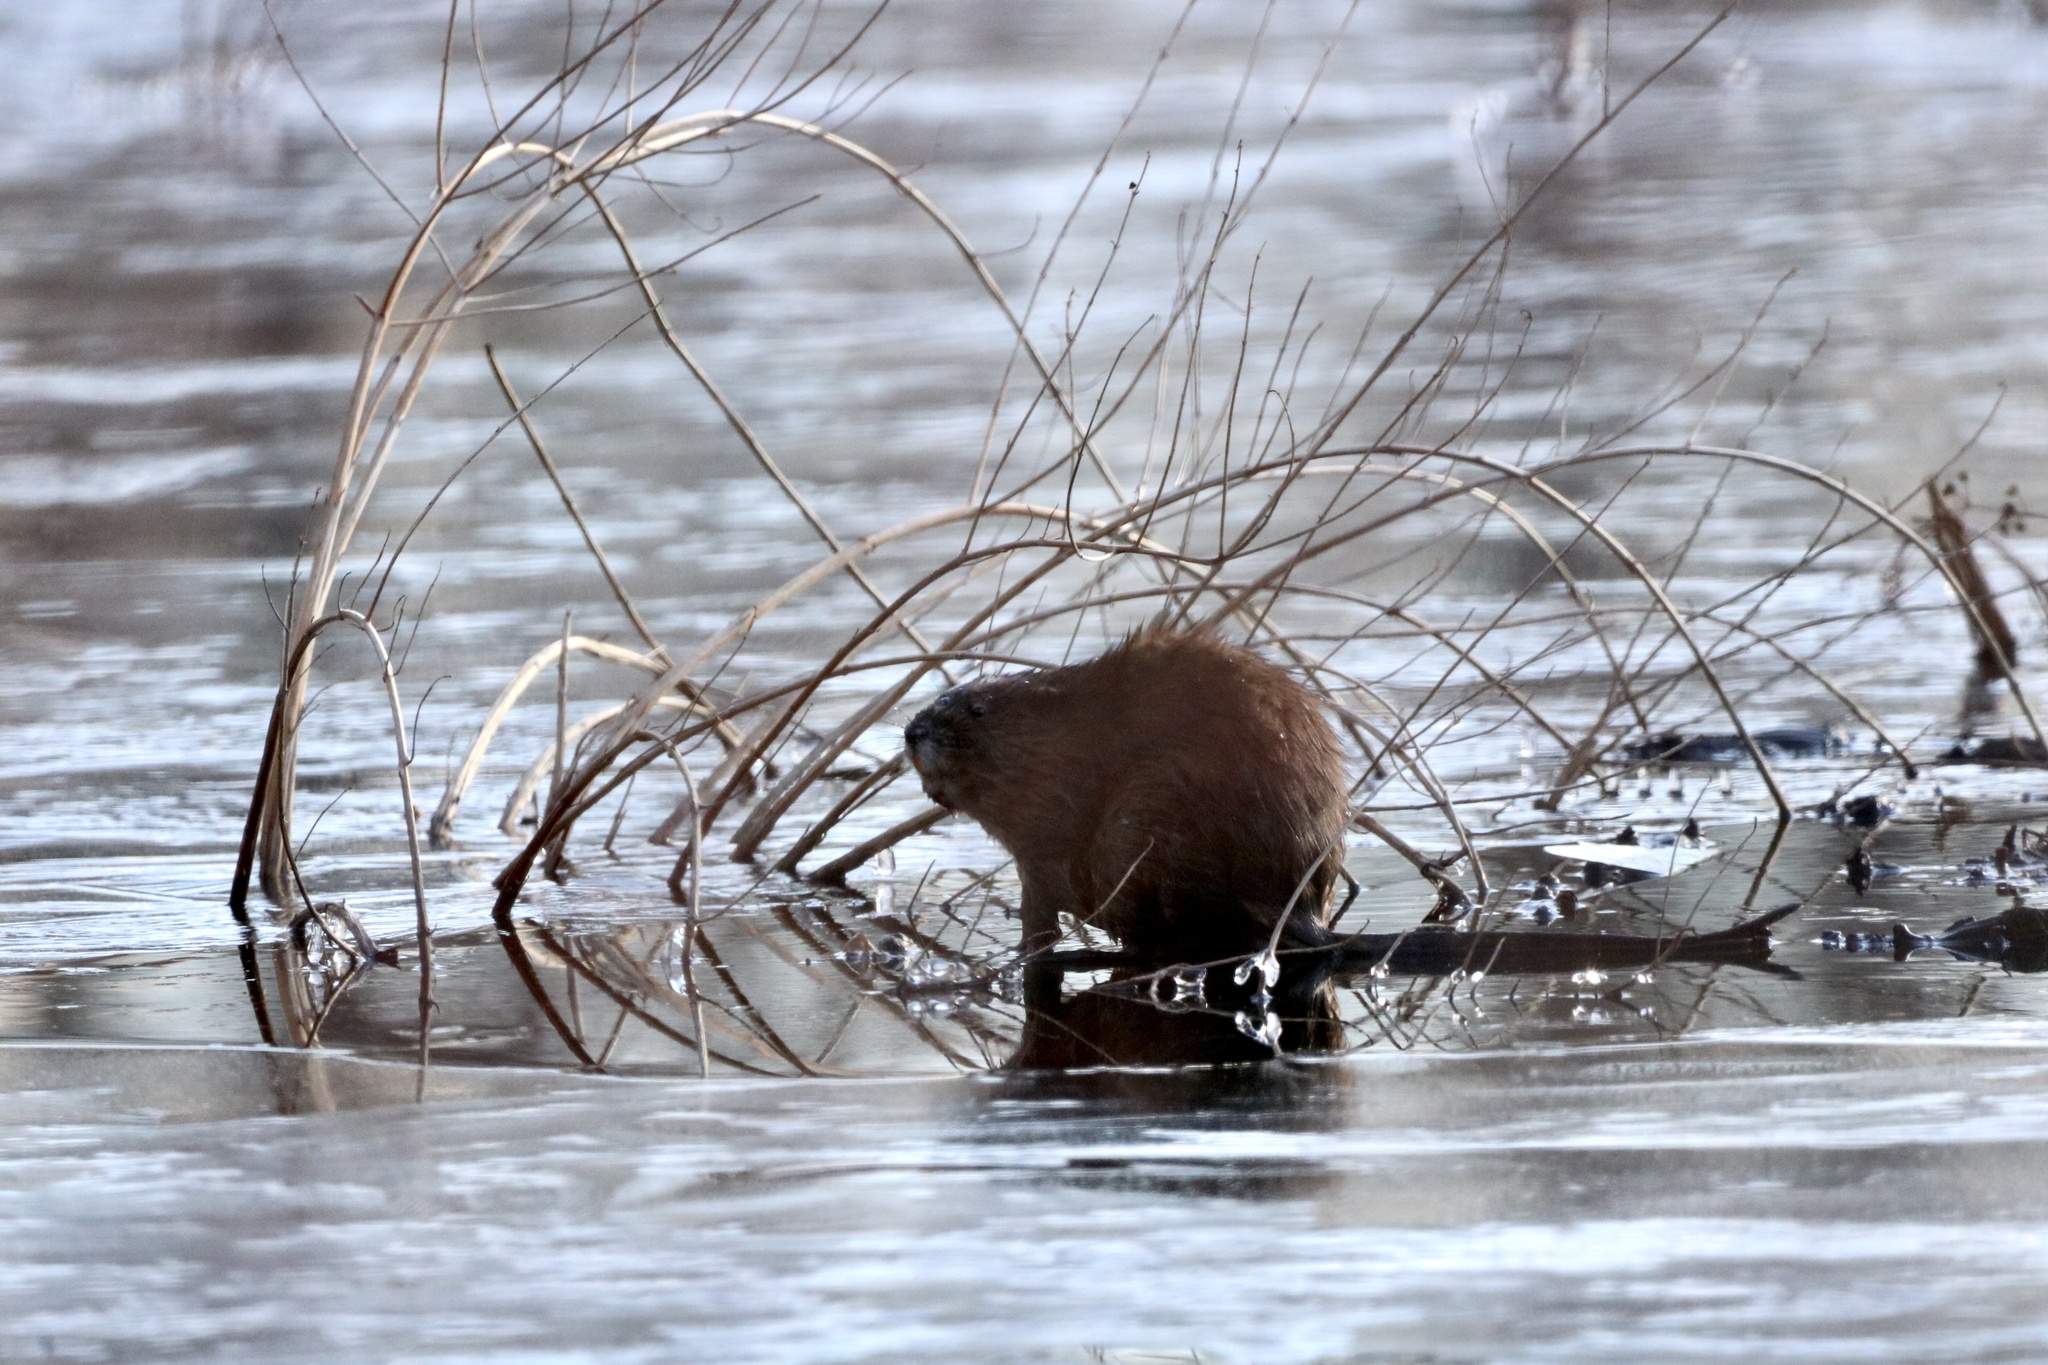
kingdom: Animalia
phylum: Chordata
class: Mammalia
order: Rodentia
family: Cricetidae
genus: Ondatra
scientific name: Ondatra zibethicus
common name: Muskrat
